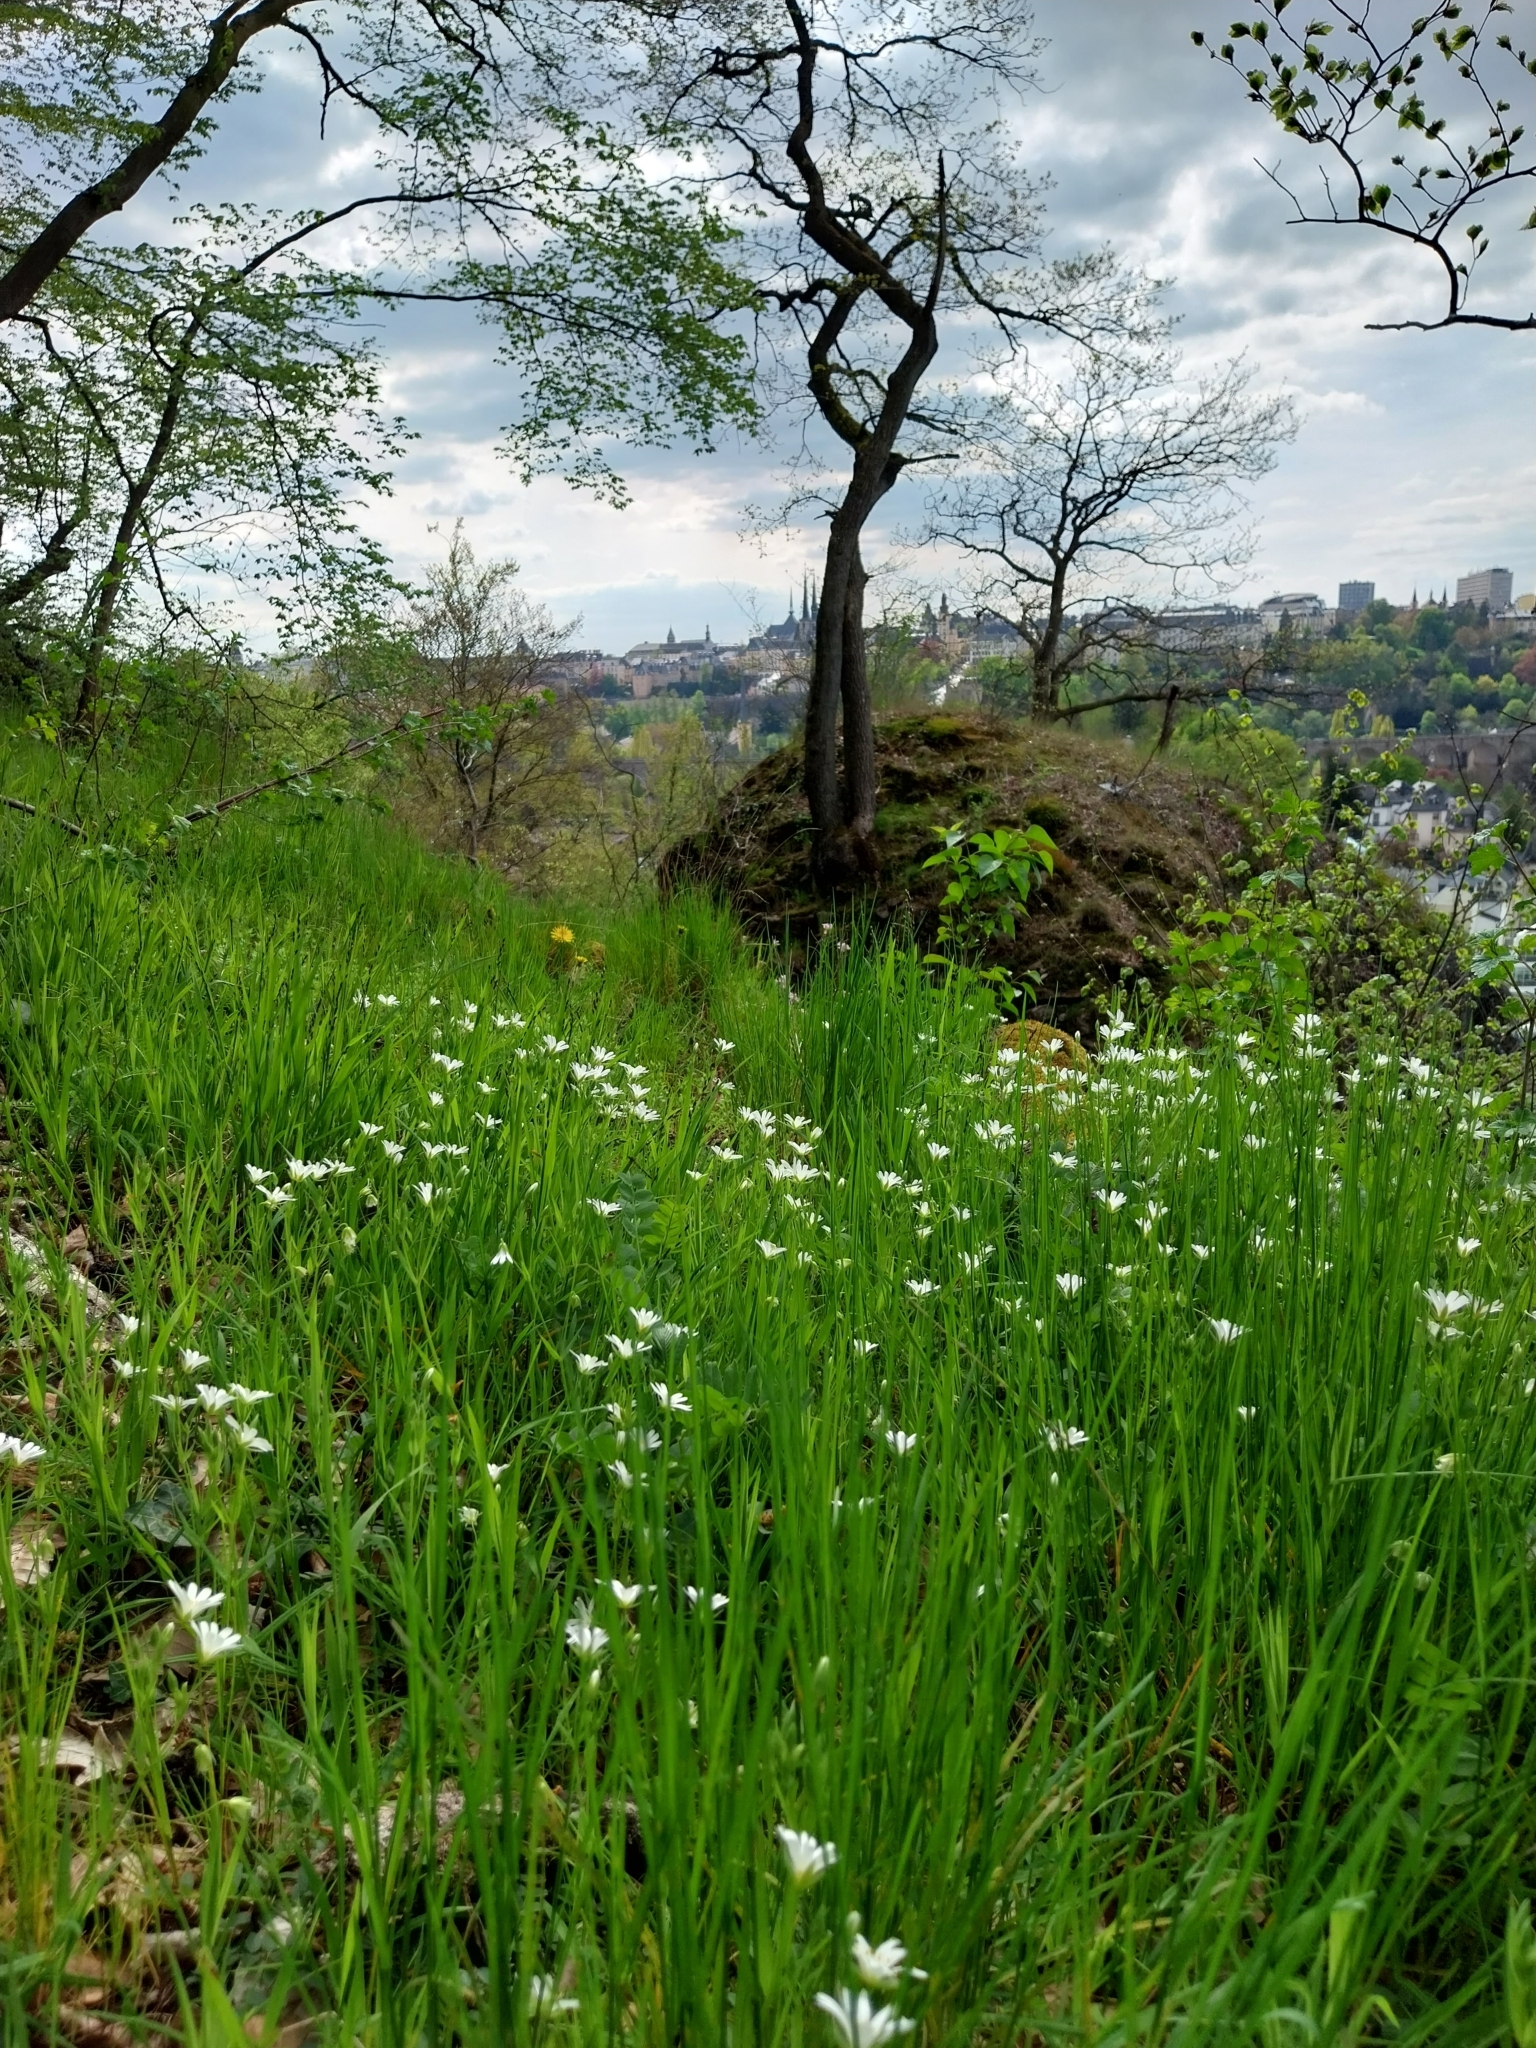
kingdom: Plantae
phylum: Tracheophyta
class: Magnoliopsida
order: Caryophyllales
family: Caryophyllaceae
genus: Rabelera
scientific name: Rabelera holostea
